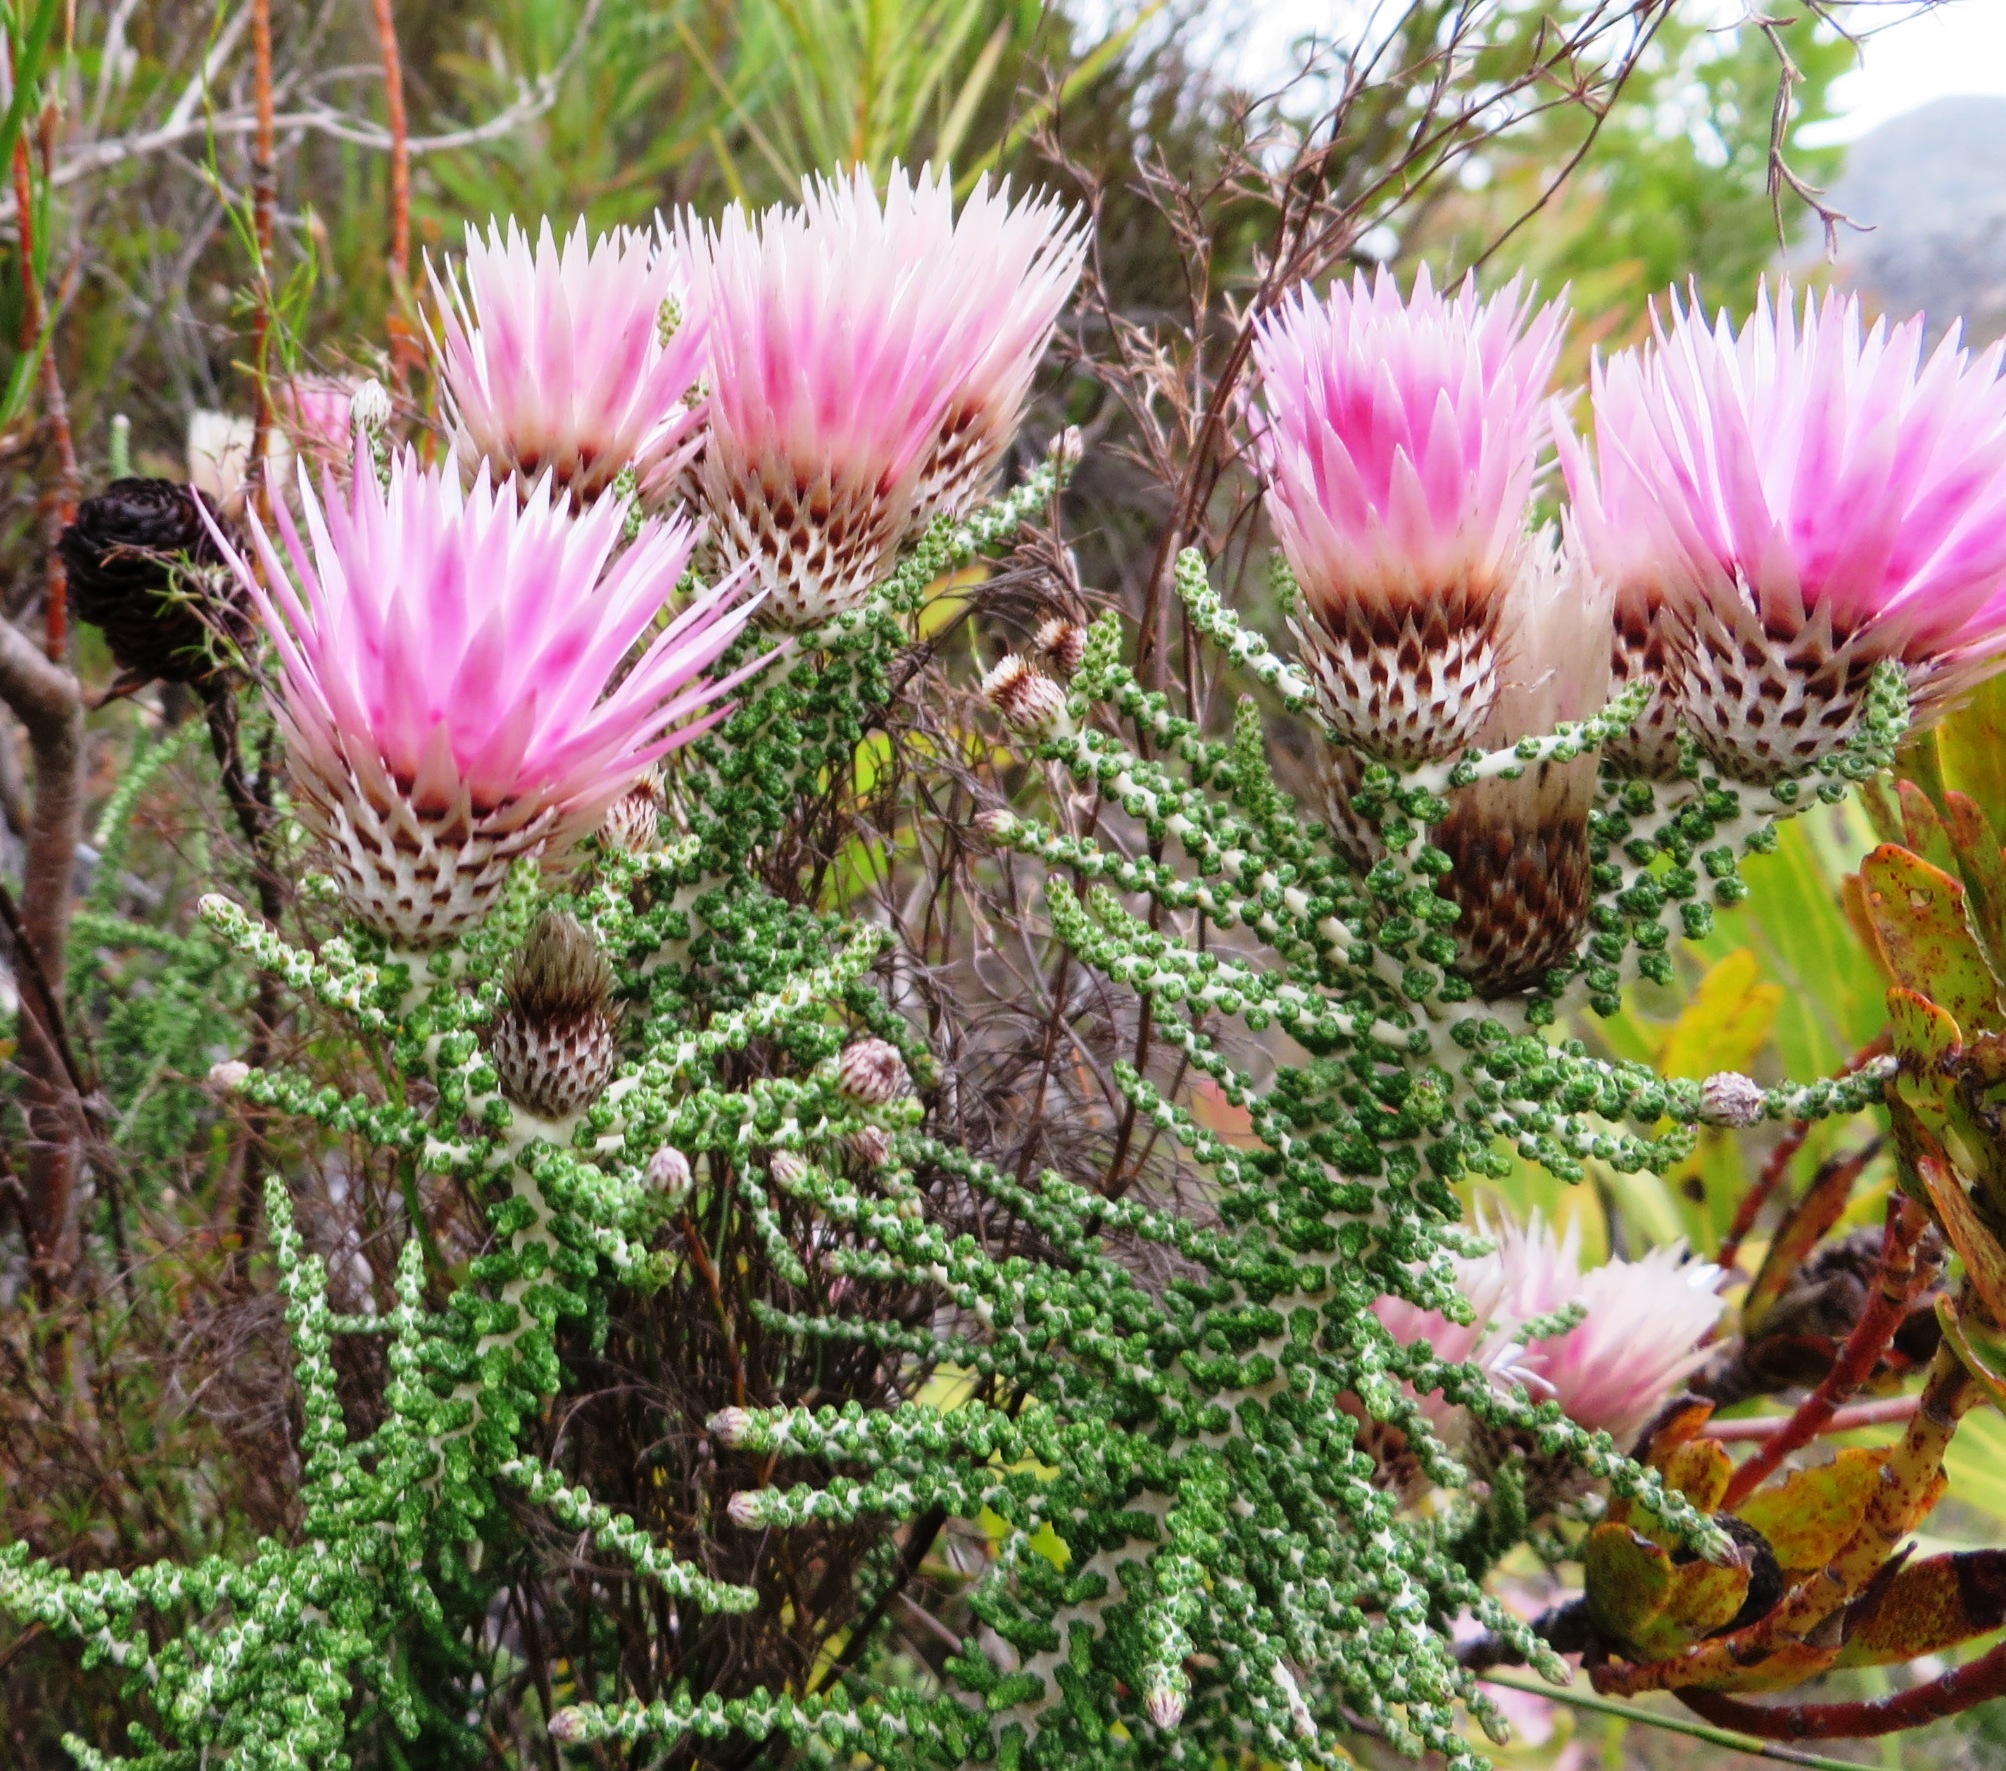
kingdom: Plantae
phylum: Tracheophyta
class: Magnoliopsida
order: Asterales
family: Asteraceae
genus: Phaenocoma
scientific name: Phaenocoma prolifera
